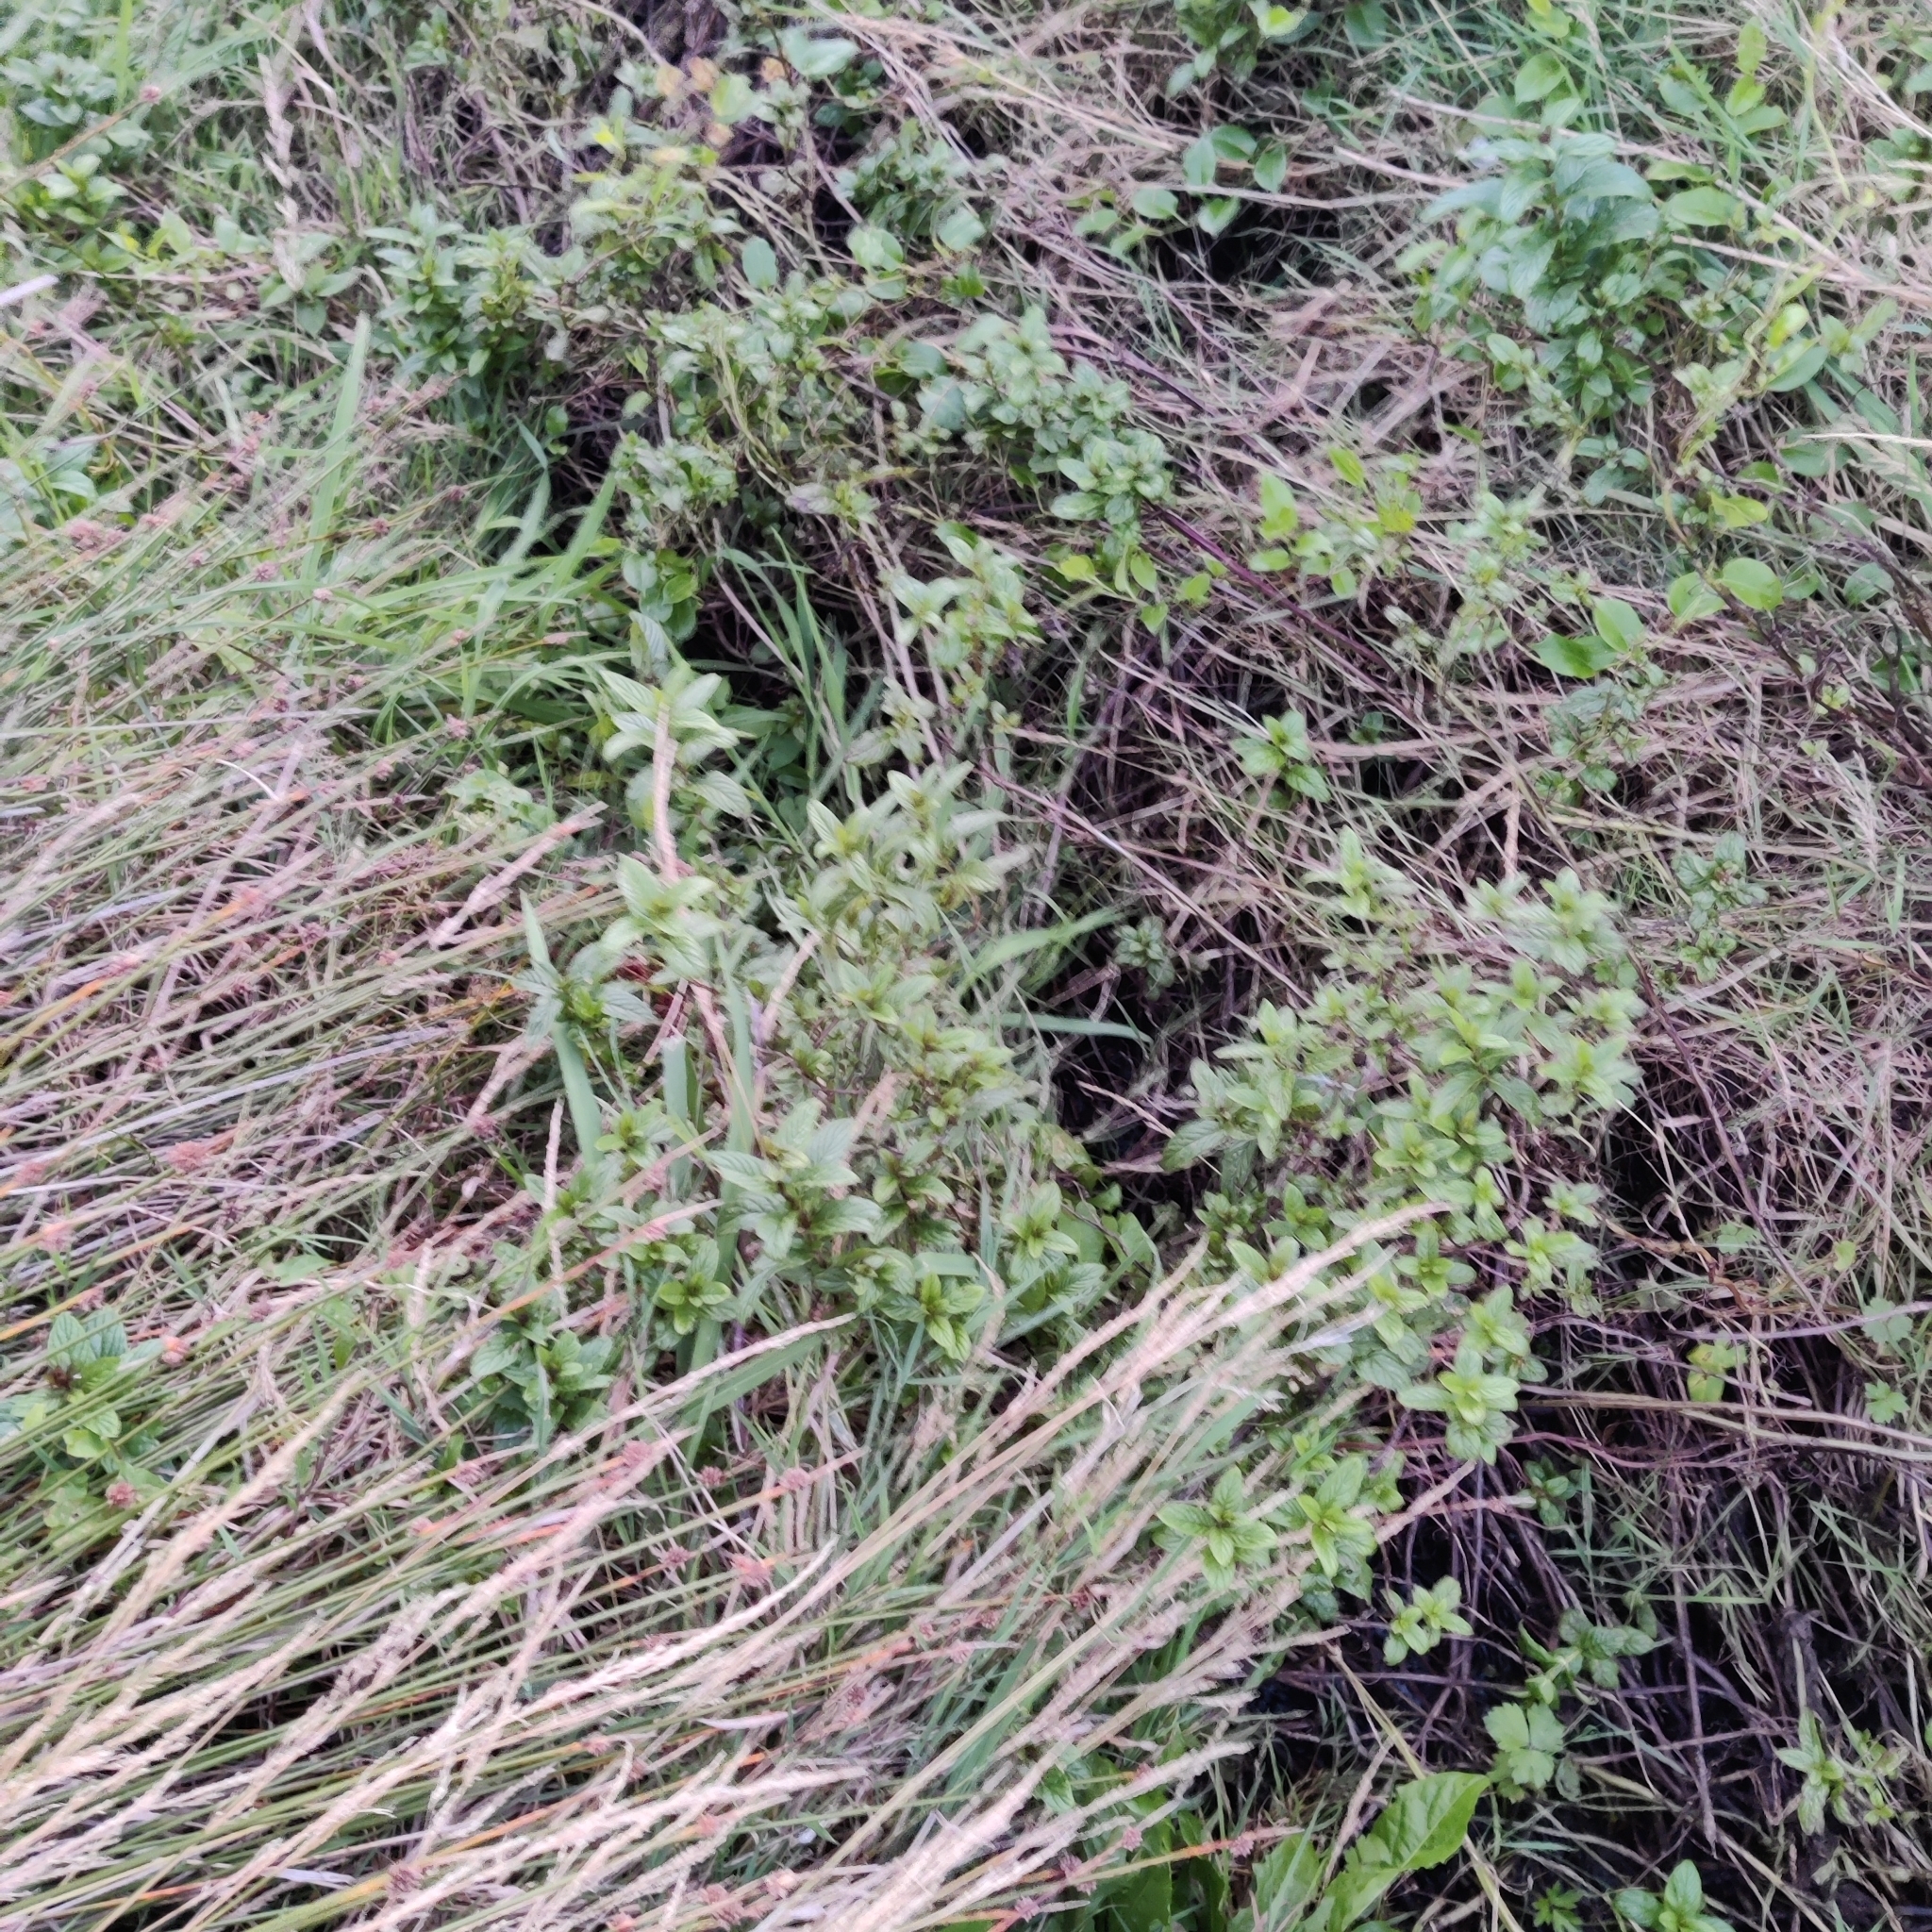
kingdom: Plantae
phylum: Tracheophyta
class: Magnoliopsida
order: Lamiales
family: Lamiaceae
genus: Mentha
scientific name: Mentha spicata
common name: Spearmint
